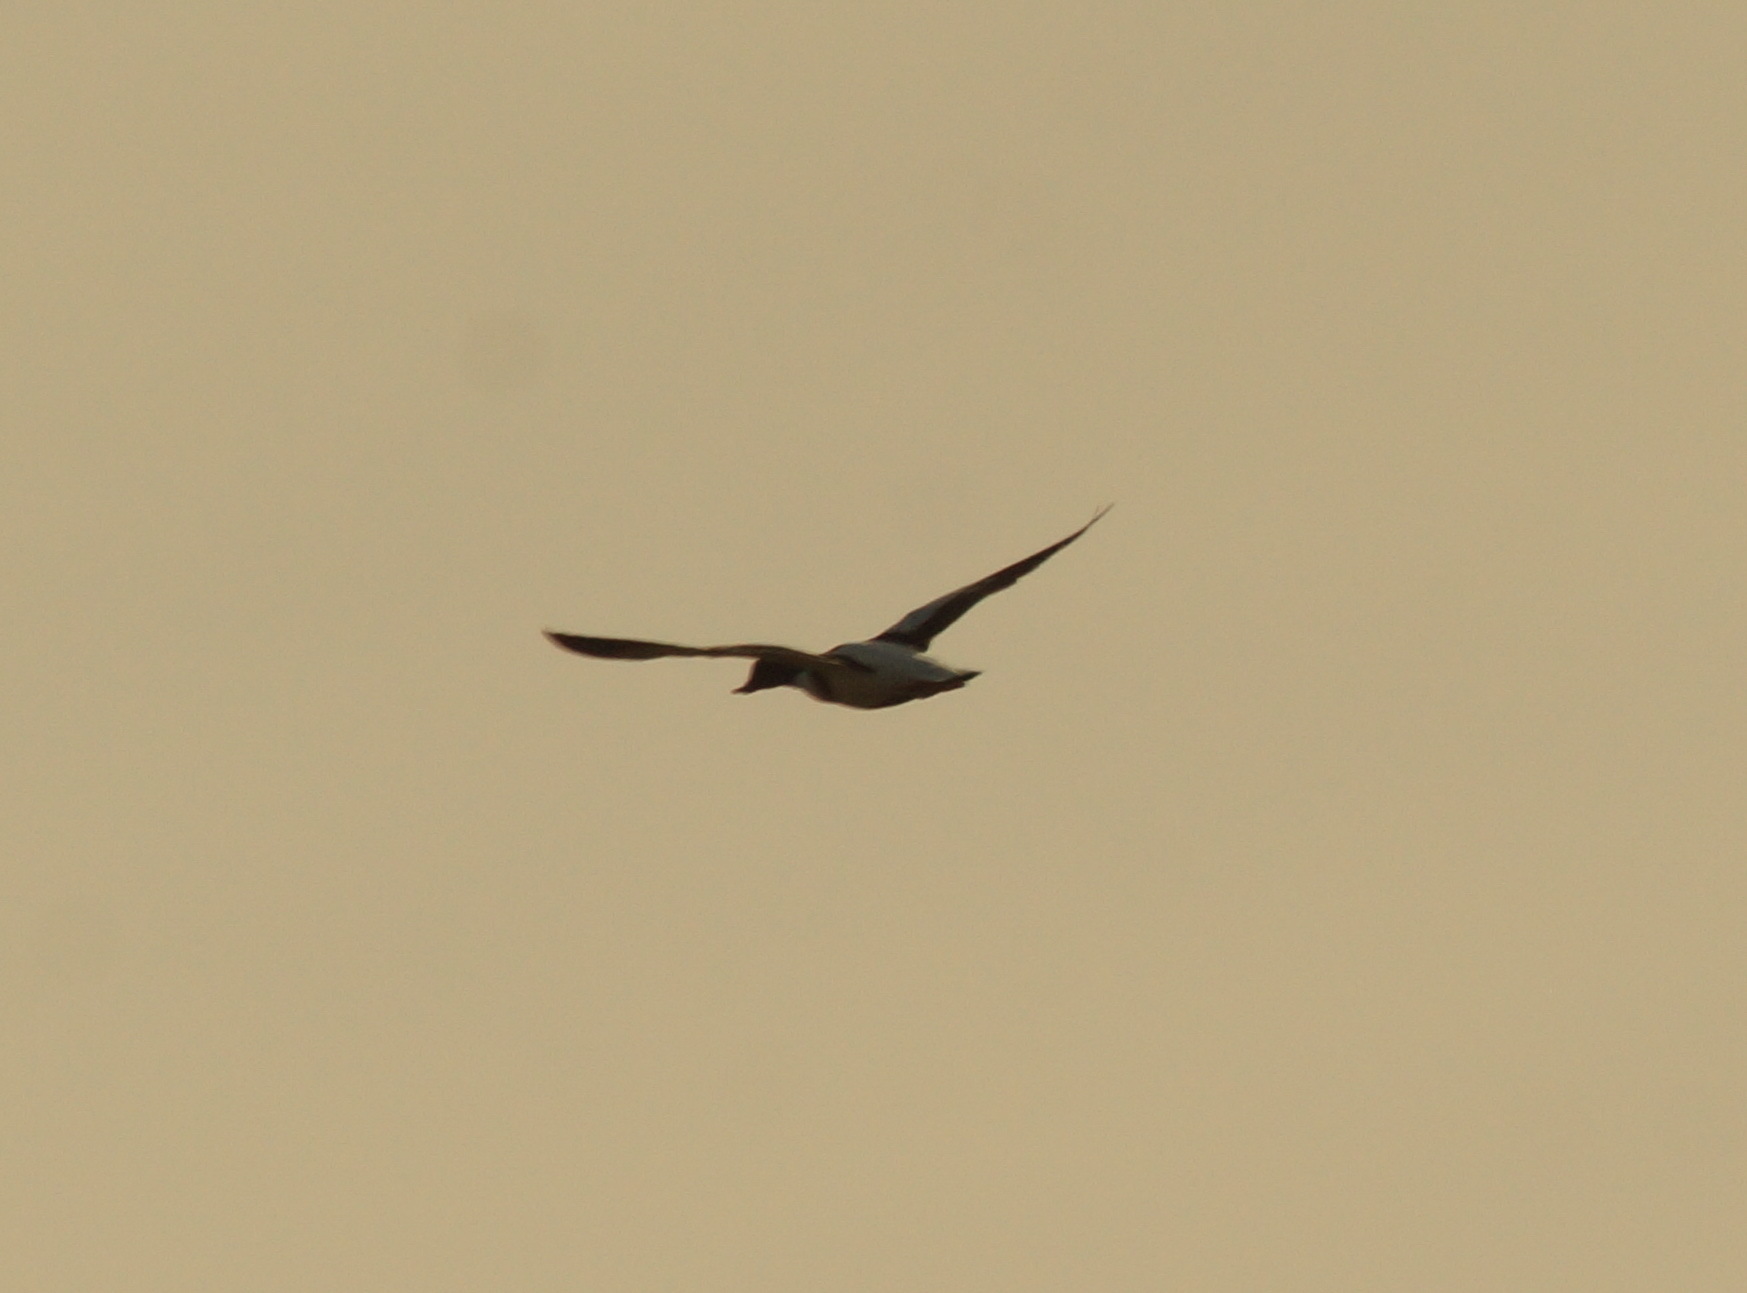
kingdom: Animalia
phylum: Chordata
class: Aves
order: Anseriformes
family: Anatidae
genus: Tadorna
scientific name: Tadorna tadorna
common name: Common shelduck
